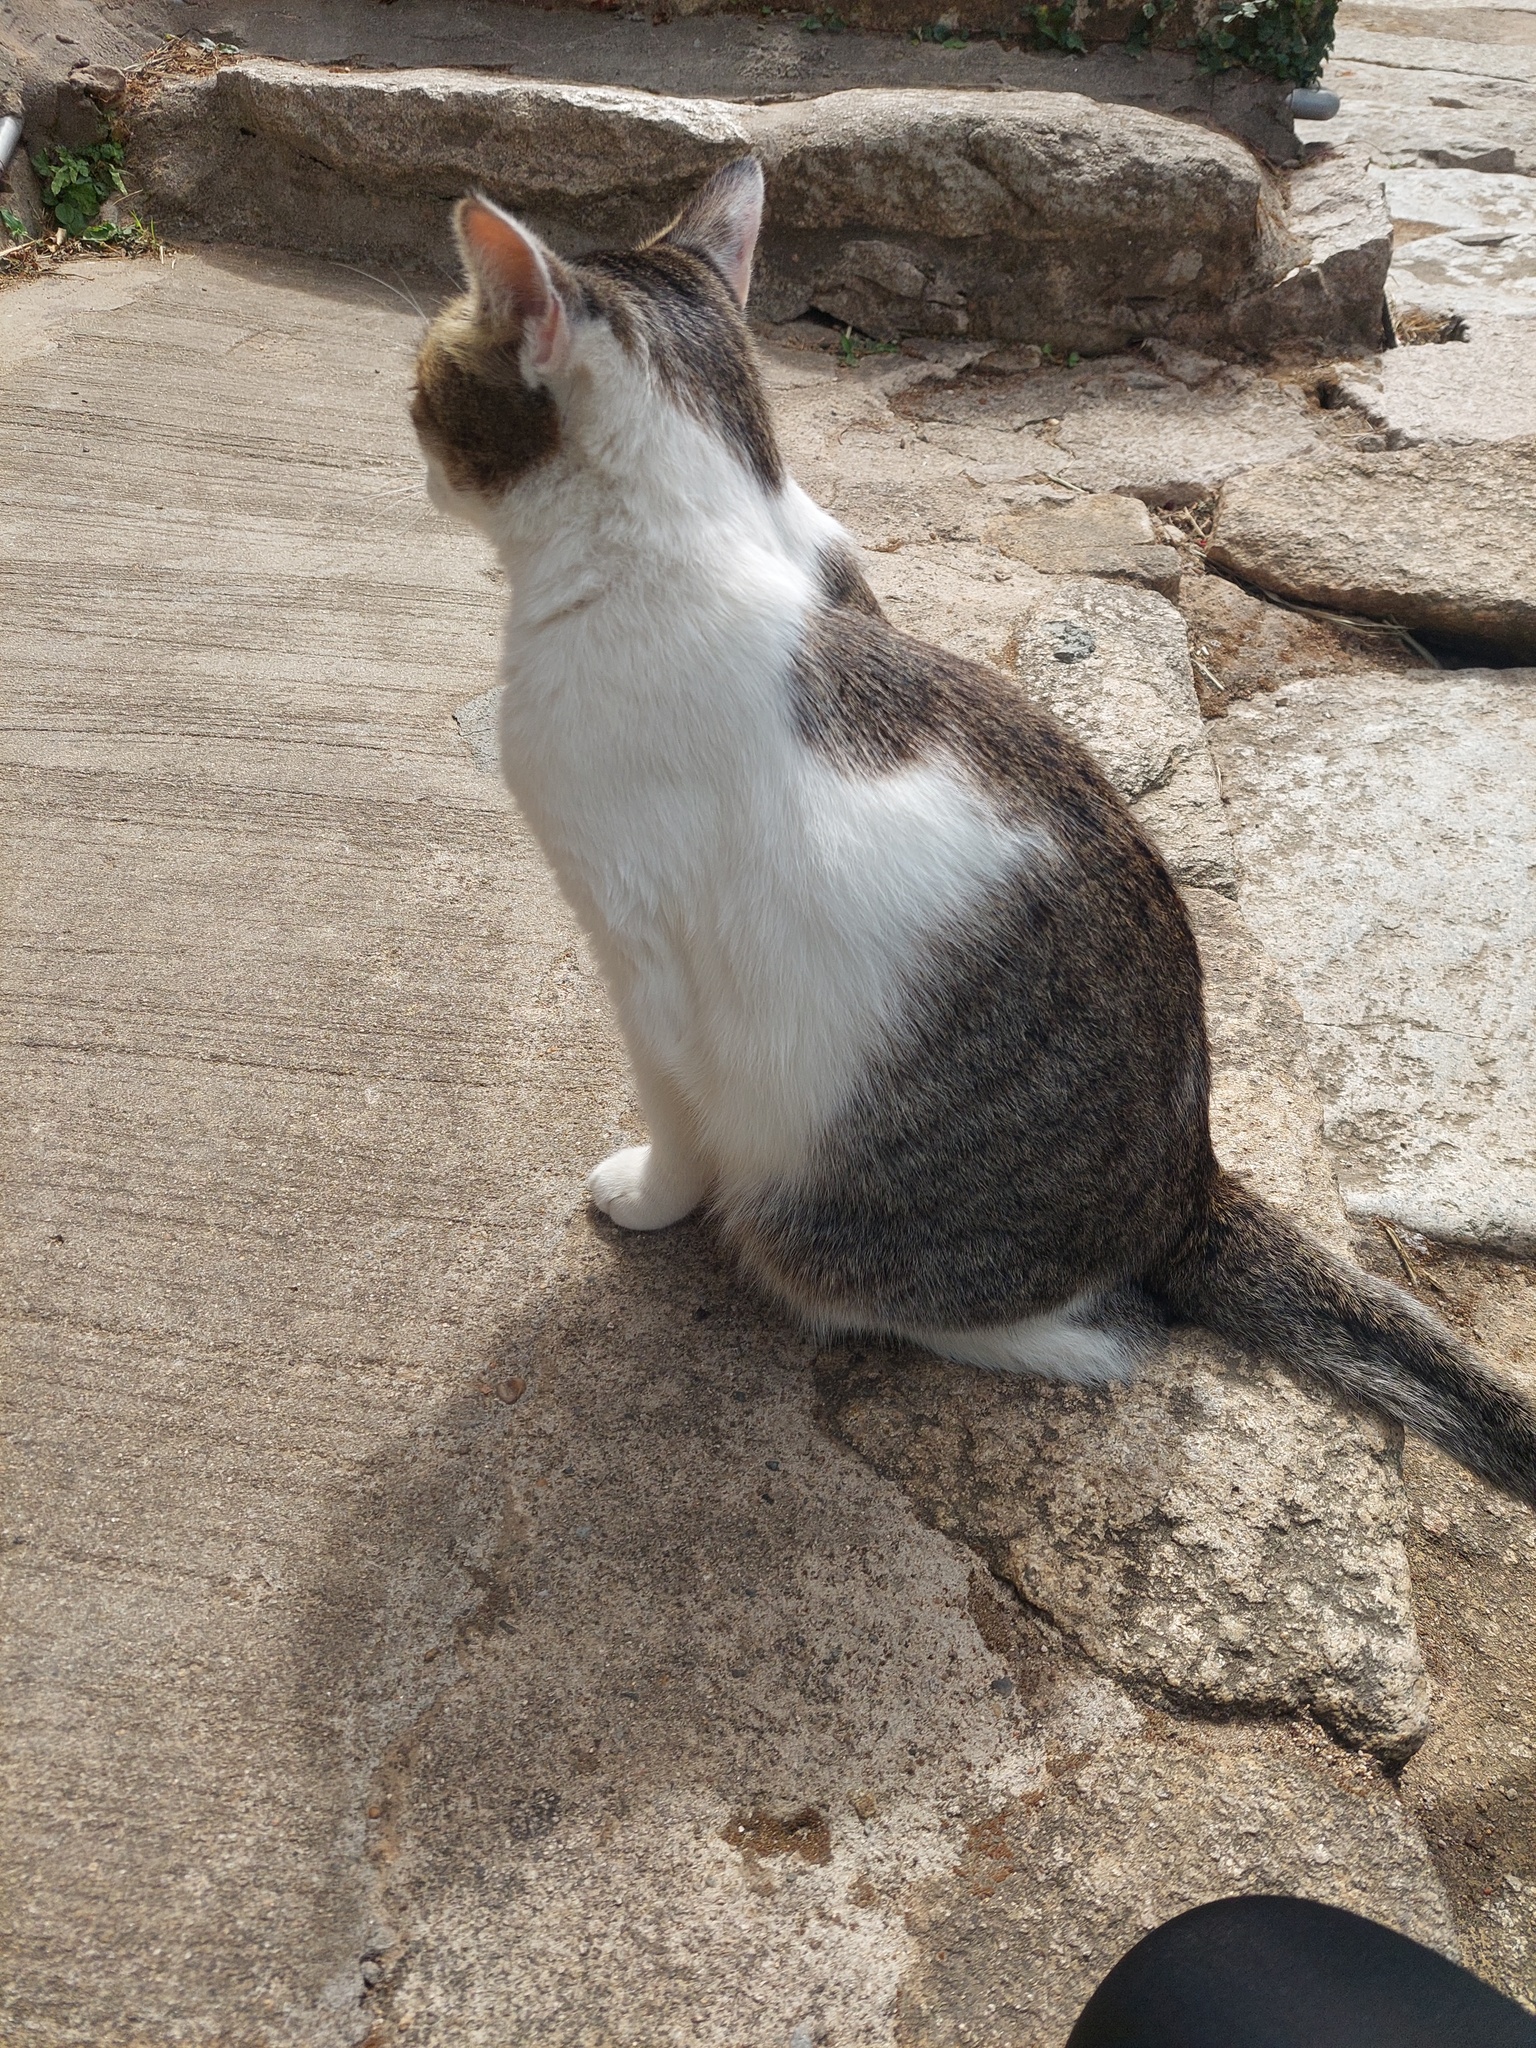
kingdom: Animalia
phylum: Chordata
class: Mammalia
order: Carnivora
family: Felidae
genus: Felis
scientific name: Felis catus
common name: Domestic cat
